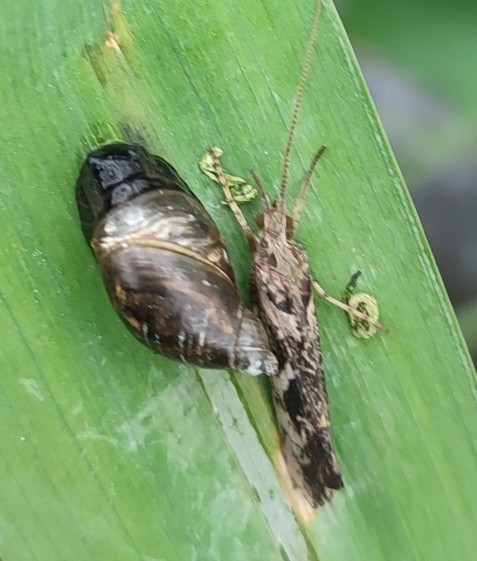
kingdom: Animalia
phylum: Arthropoda
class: Insecta
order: Trichoptera
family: Limnephilidae
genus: Glyphotaelius
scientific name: Glyphotaelius pellucidus
